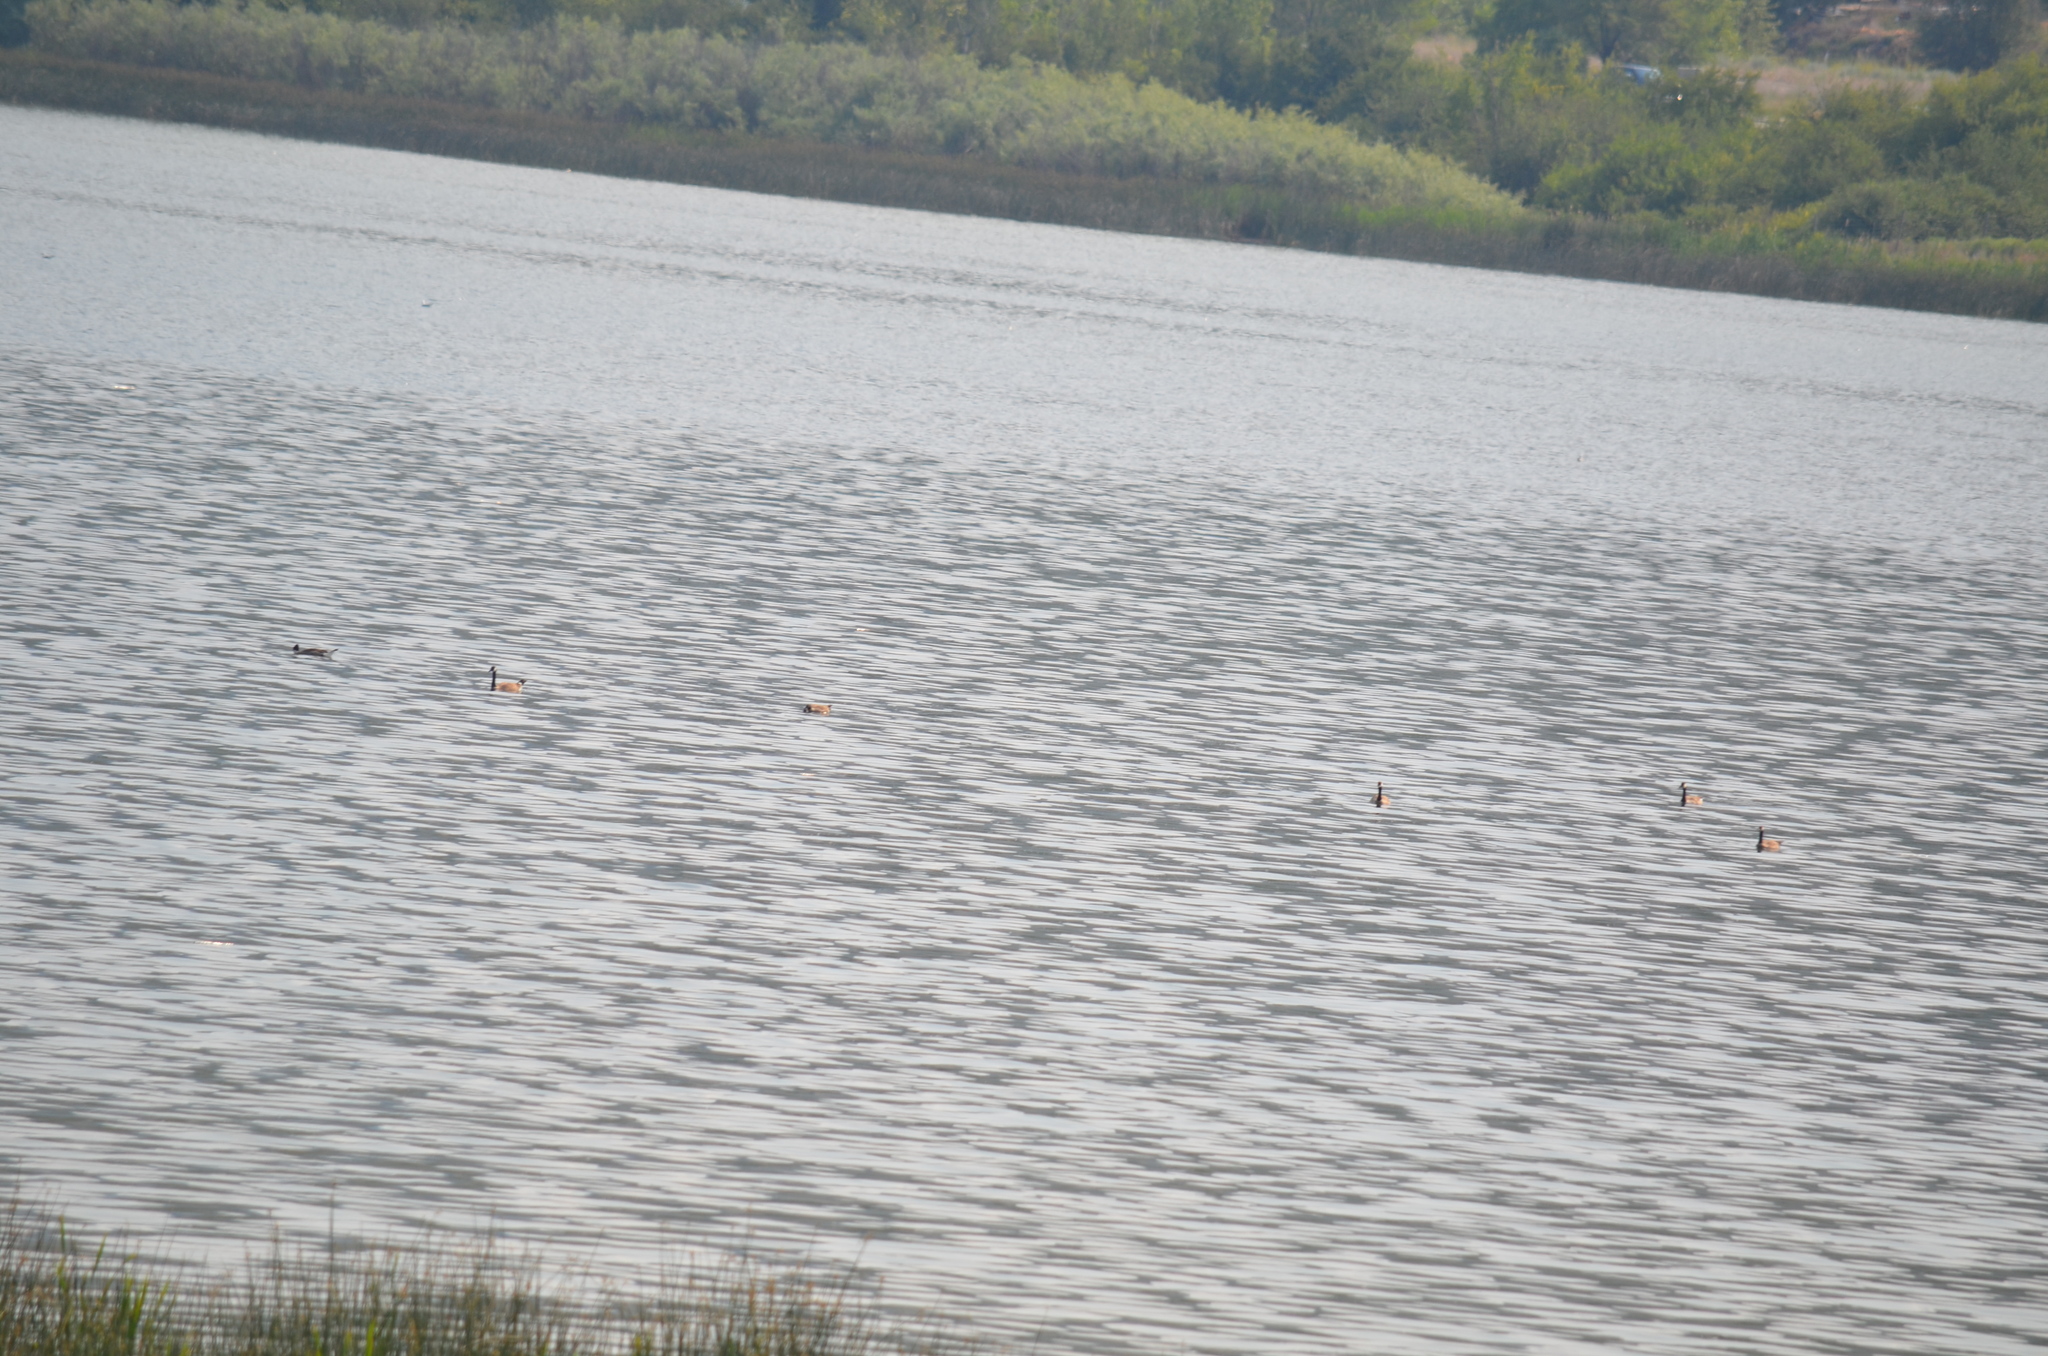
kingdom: Animalia
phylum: Chordata
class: Aves
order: Anseriformes
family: Anatidae
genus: Branta
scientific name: Branta canadensis
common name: Canada goose
